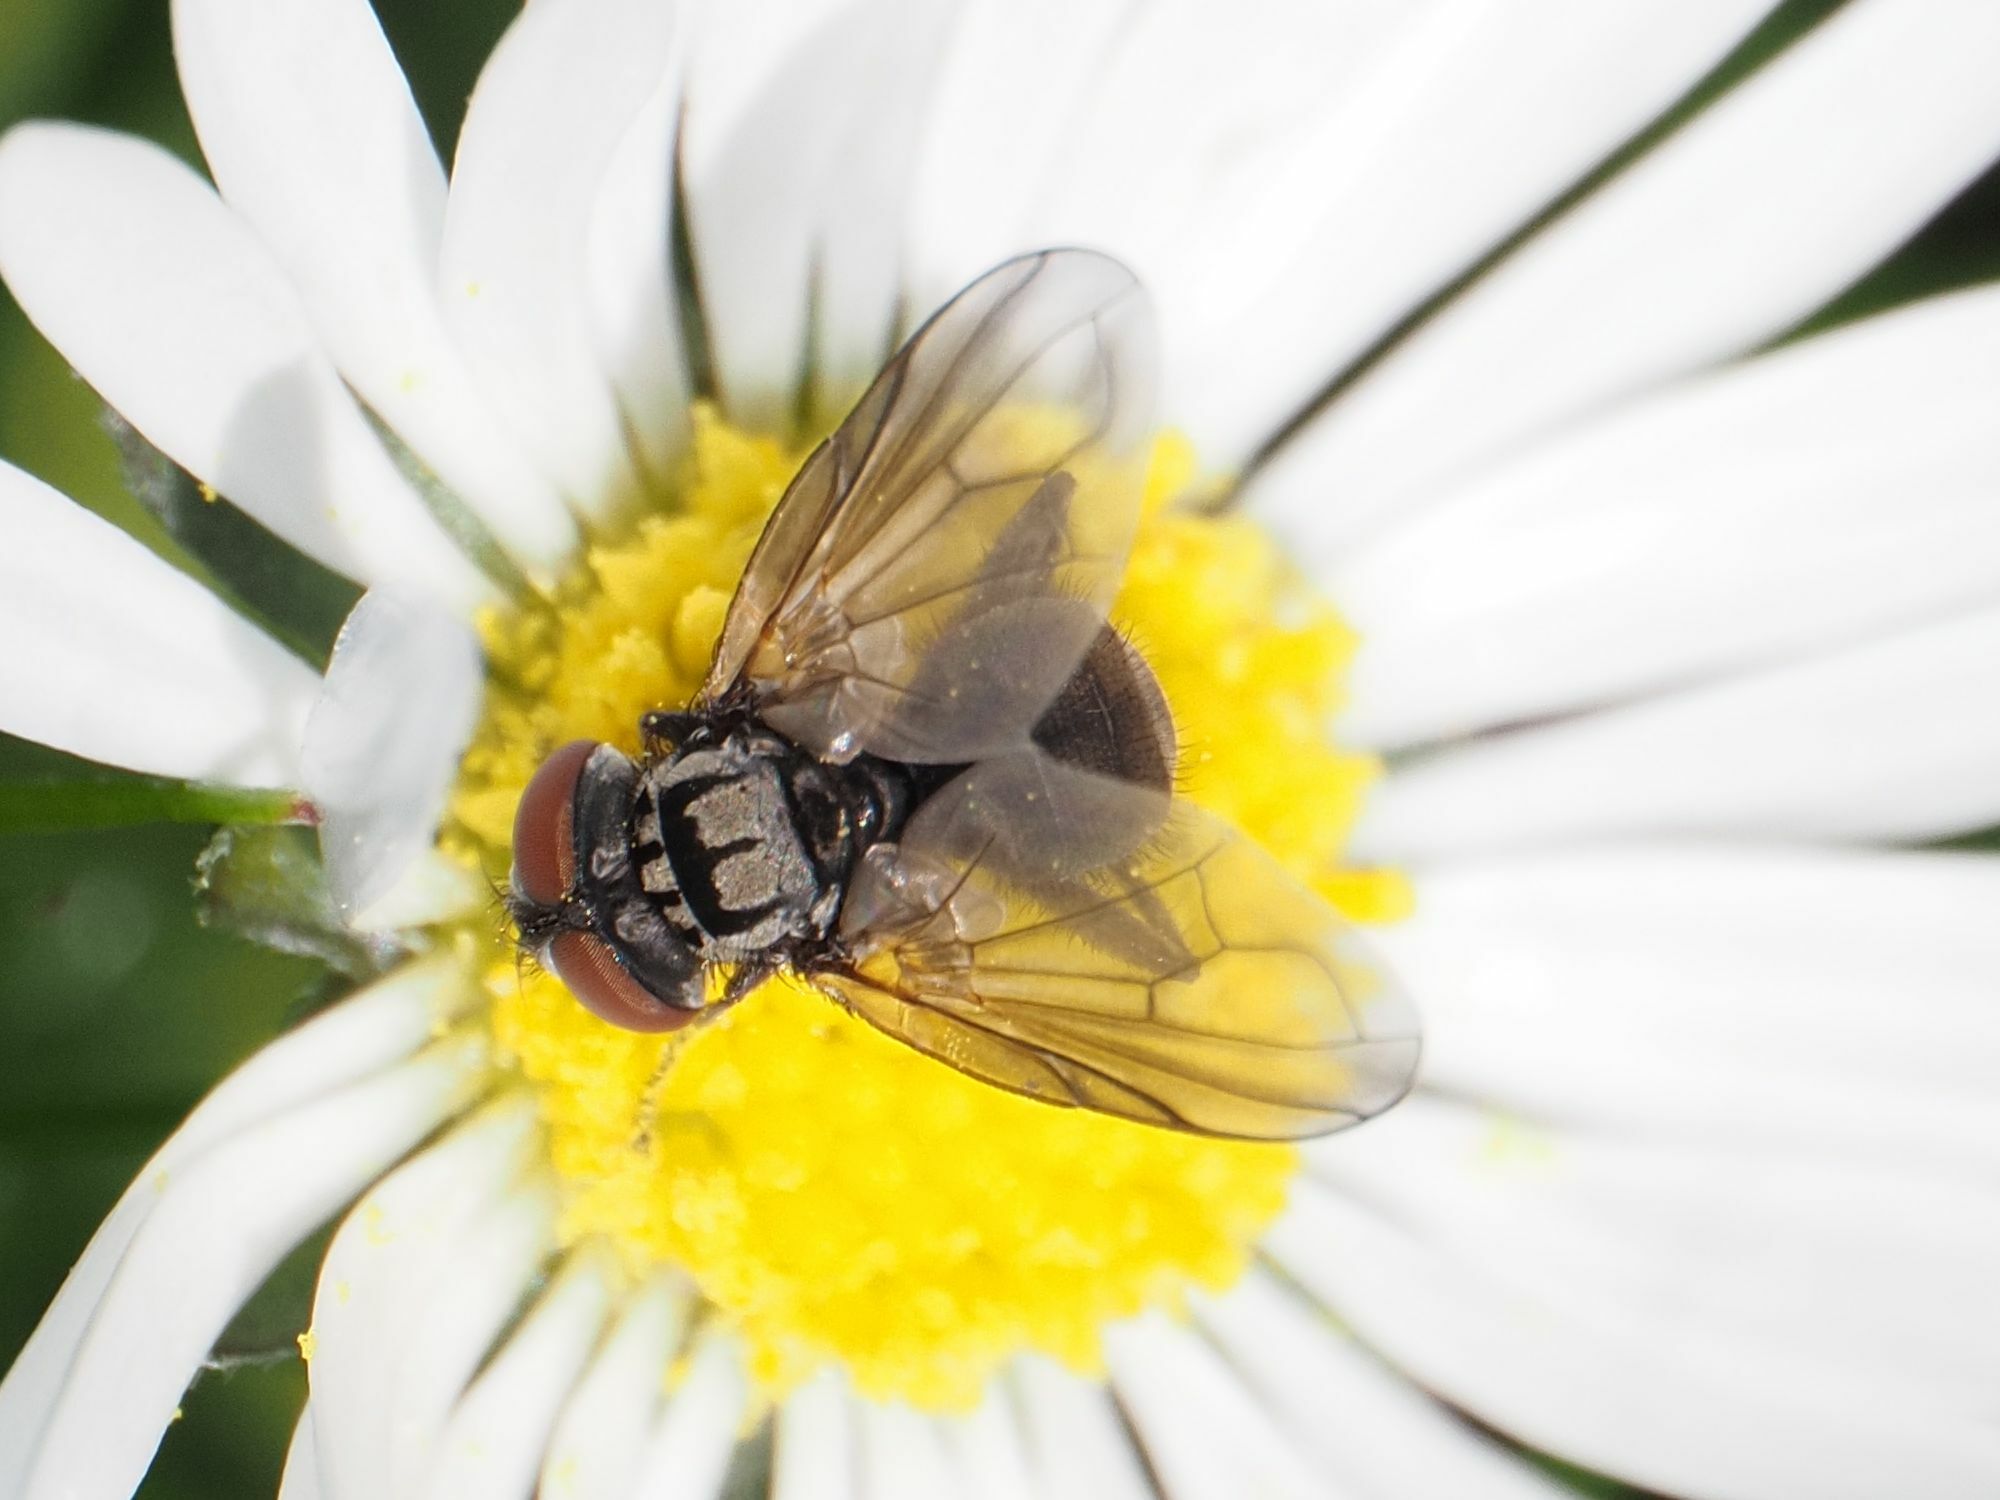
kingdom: Animalia
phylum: Arthropoda
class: Insecta
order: Diptera
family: Tachinidae
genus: Phasia
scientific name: Phasia obesa
